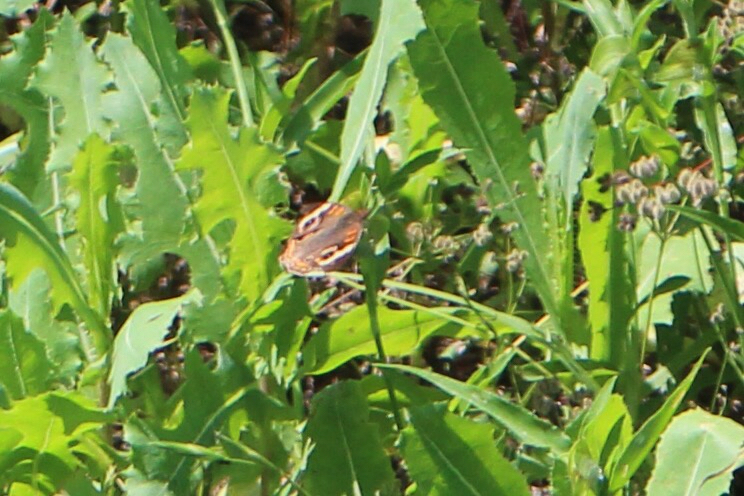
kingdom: Animalia
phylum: Arthropoda
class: Insecta
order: Lepidoptera
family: Nymphalidae
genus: Junonia
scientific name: Junonia coenia
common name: Common buckeye
